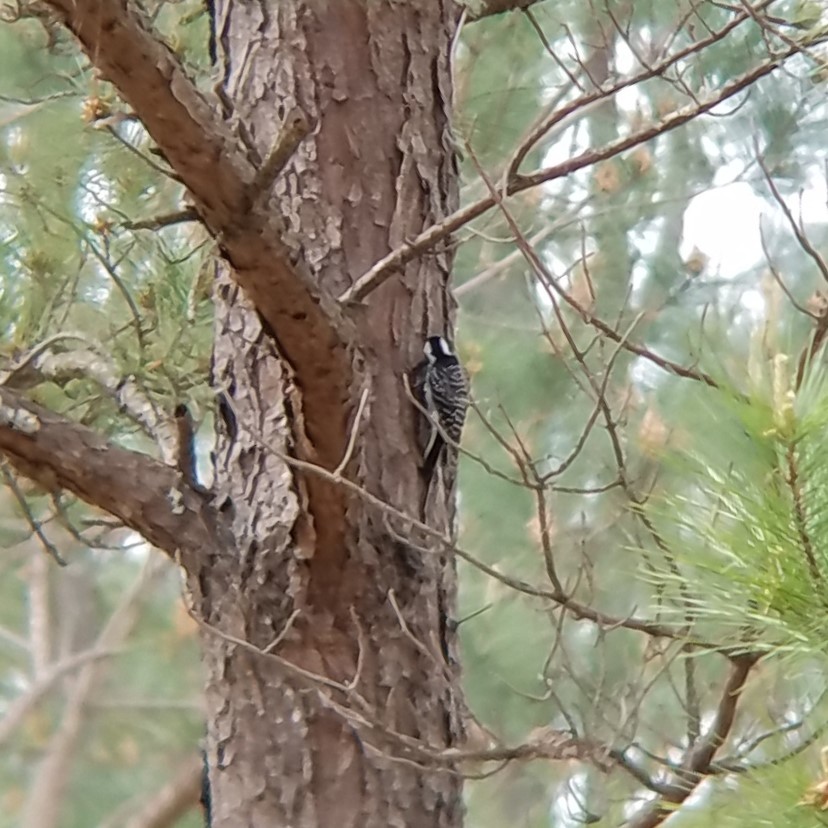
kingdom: Animalia
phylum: Chordata
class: Aves
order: Piciformes
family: Picidae
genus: Leuconotopicus
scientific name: Leuconotopicus borealis
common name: Red-cockaded woodpecker
